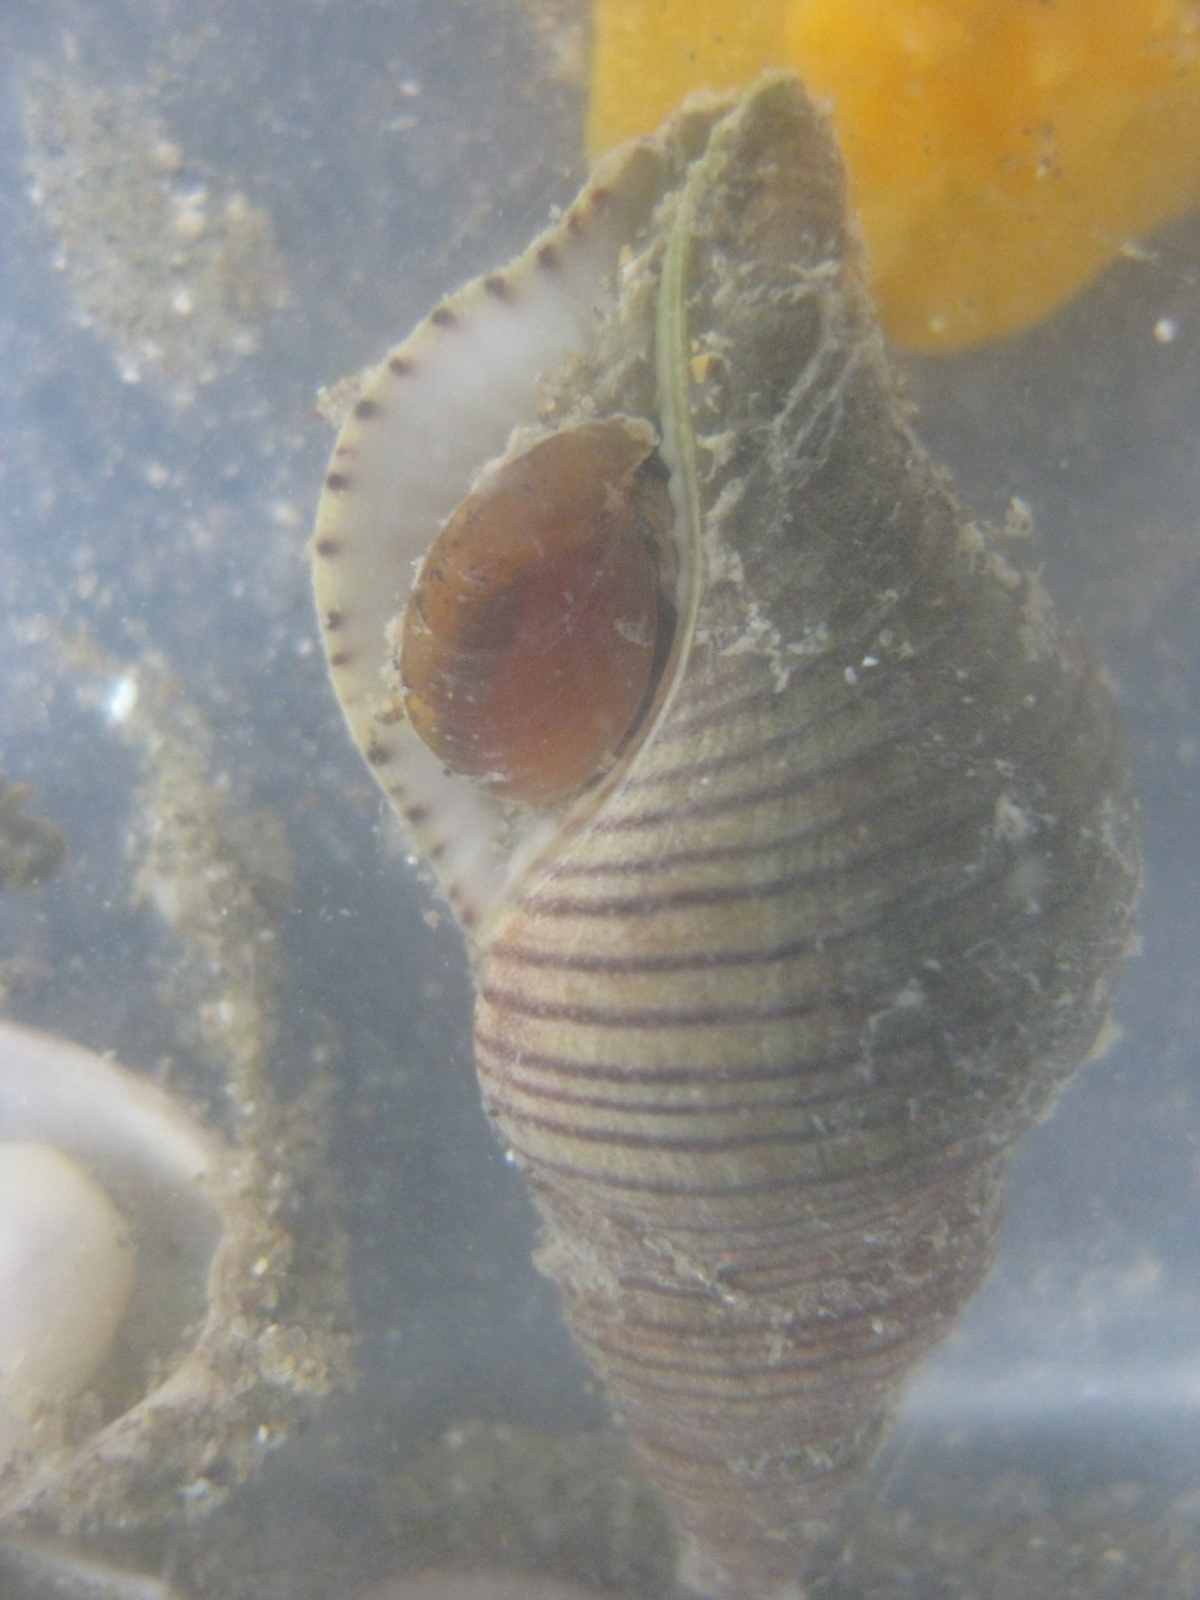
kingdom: Animalia
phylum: Mollusca
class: Gastropoda
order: Neogastropoda
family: Tudiclidae
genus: Buccinulum
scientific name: Buccinulum linea
